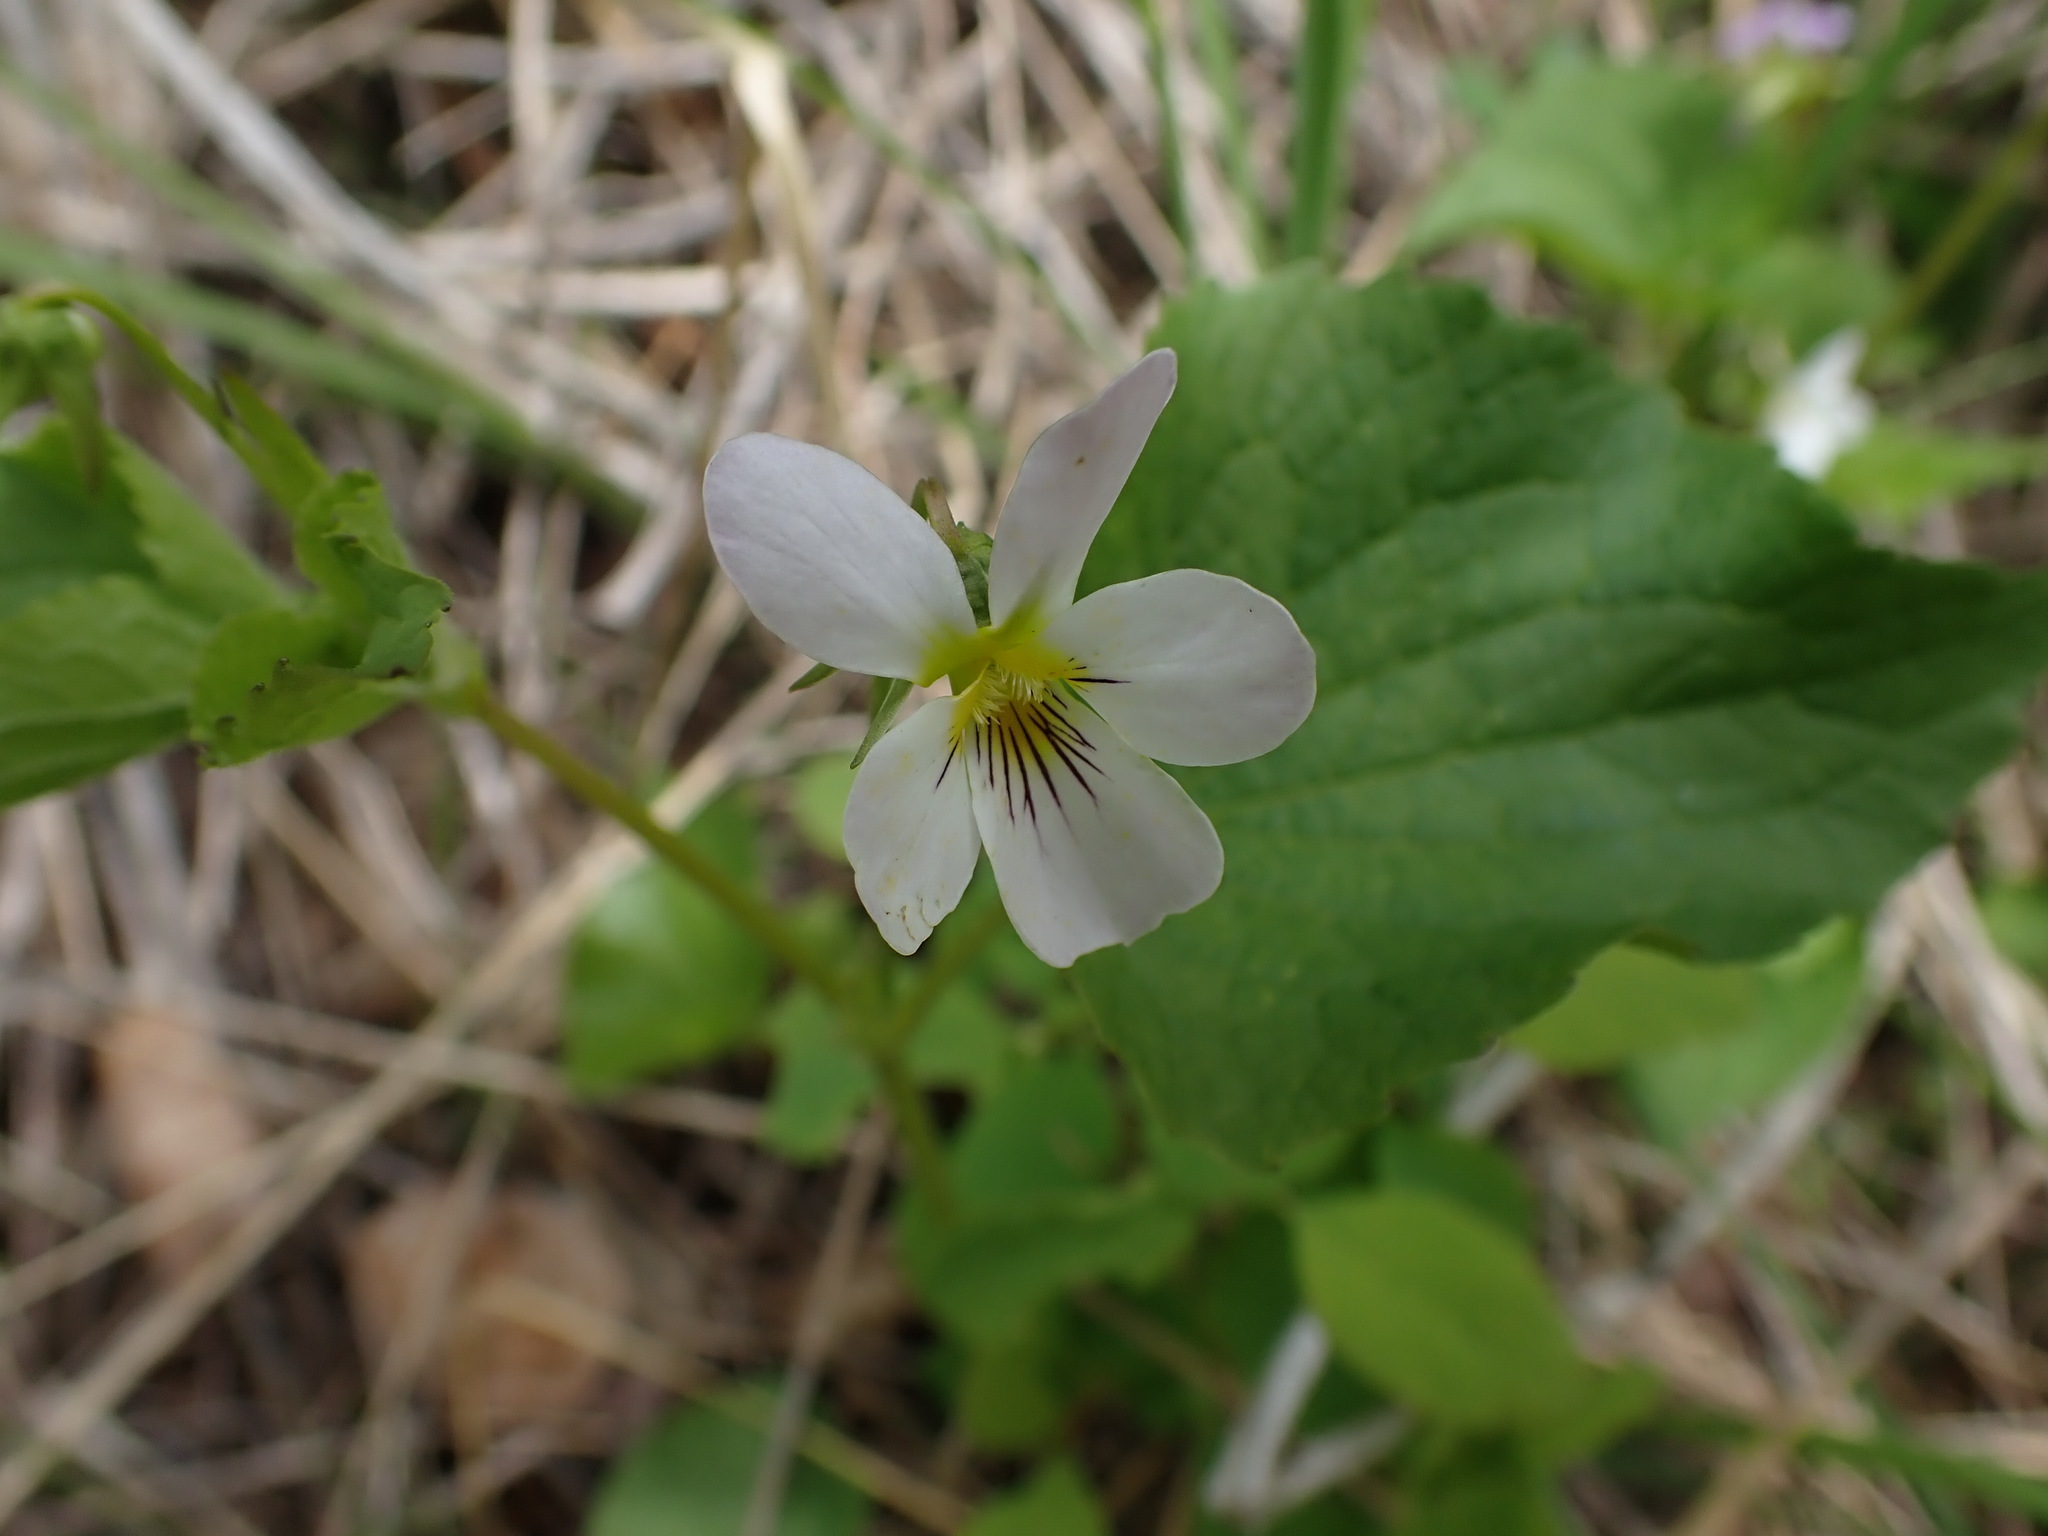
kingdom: Plantae
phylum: Tracheophyta
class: Magnoliopsida
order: Malpighiales
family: Violaceae
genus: Viola
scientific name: Viola canadensis
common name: Canada violet
